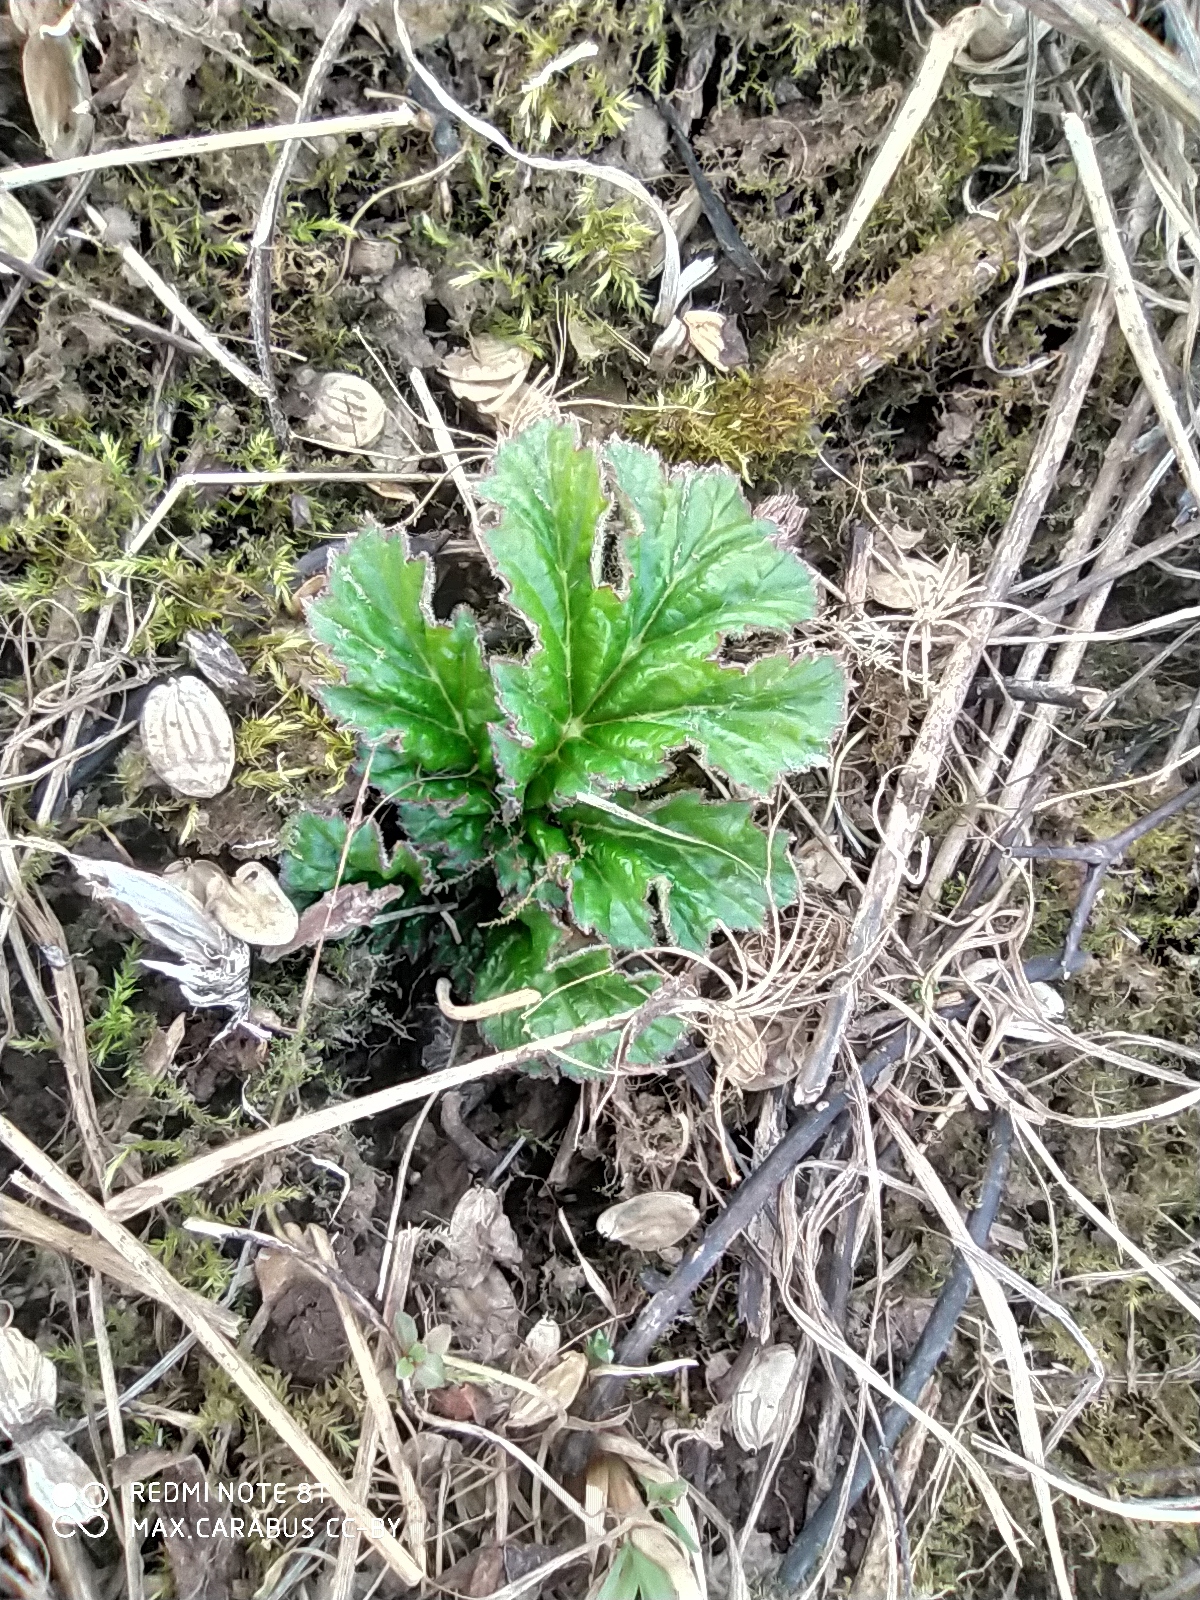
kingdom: Plantae
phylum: Tracheophyta
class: Magnoliopsida
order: Apiales
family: Apiaceae
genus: Heracleum
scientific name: Heracleum sosnowskyi
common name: Sosnowsky's hogweed
